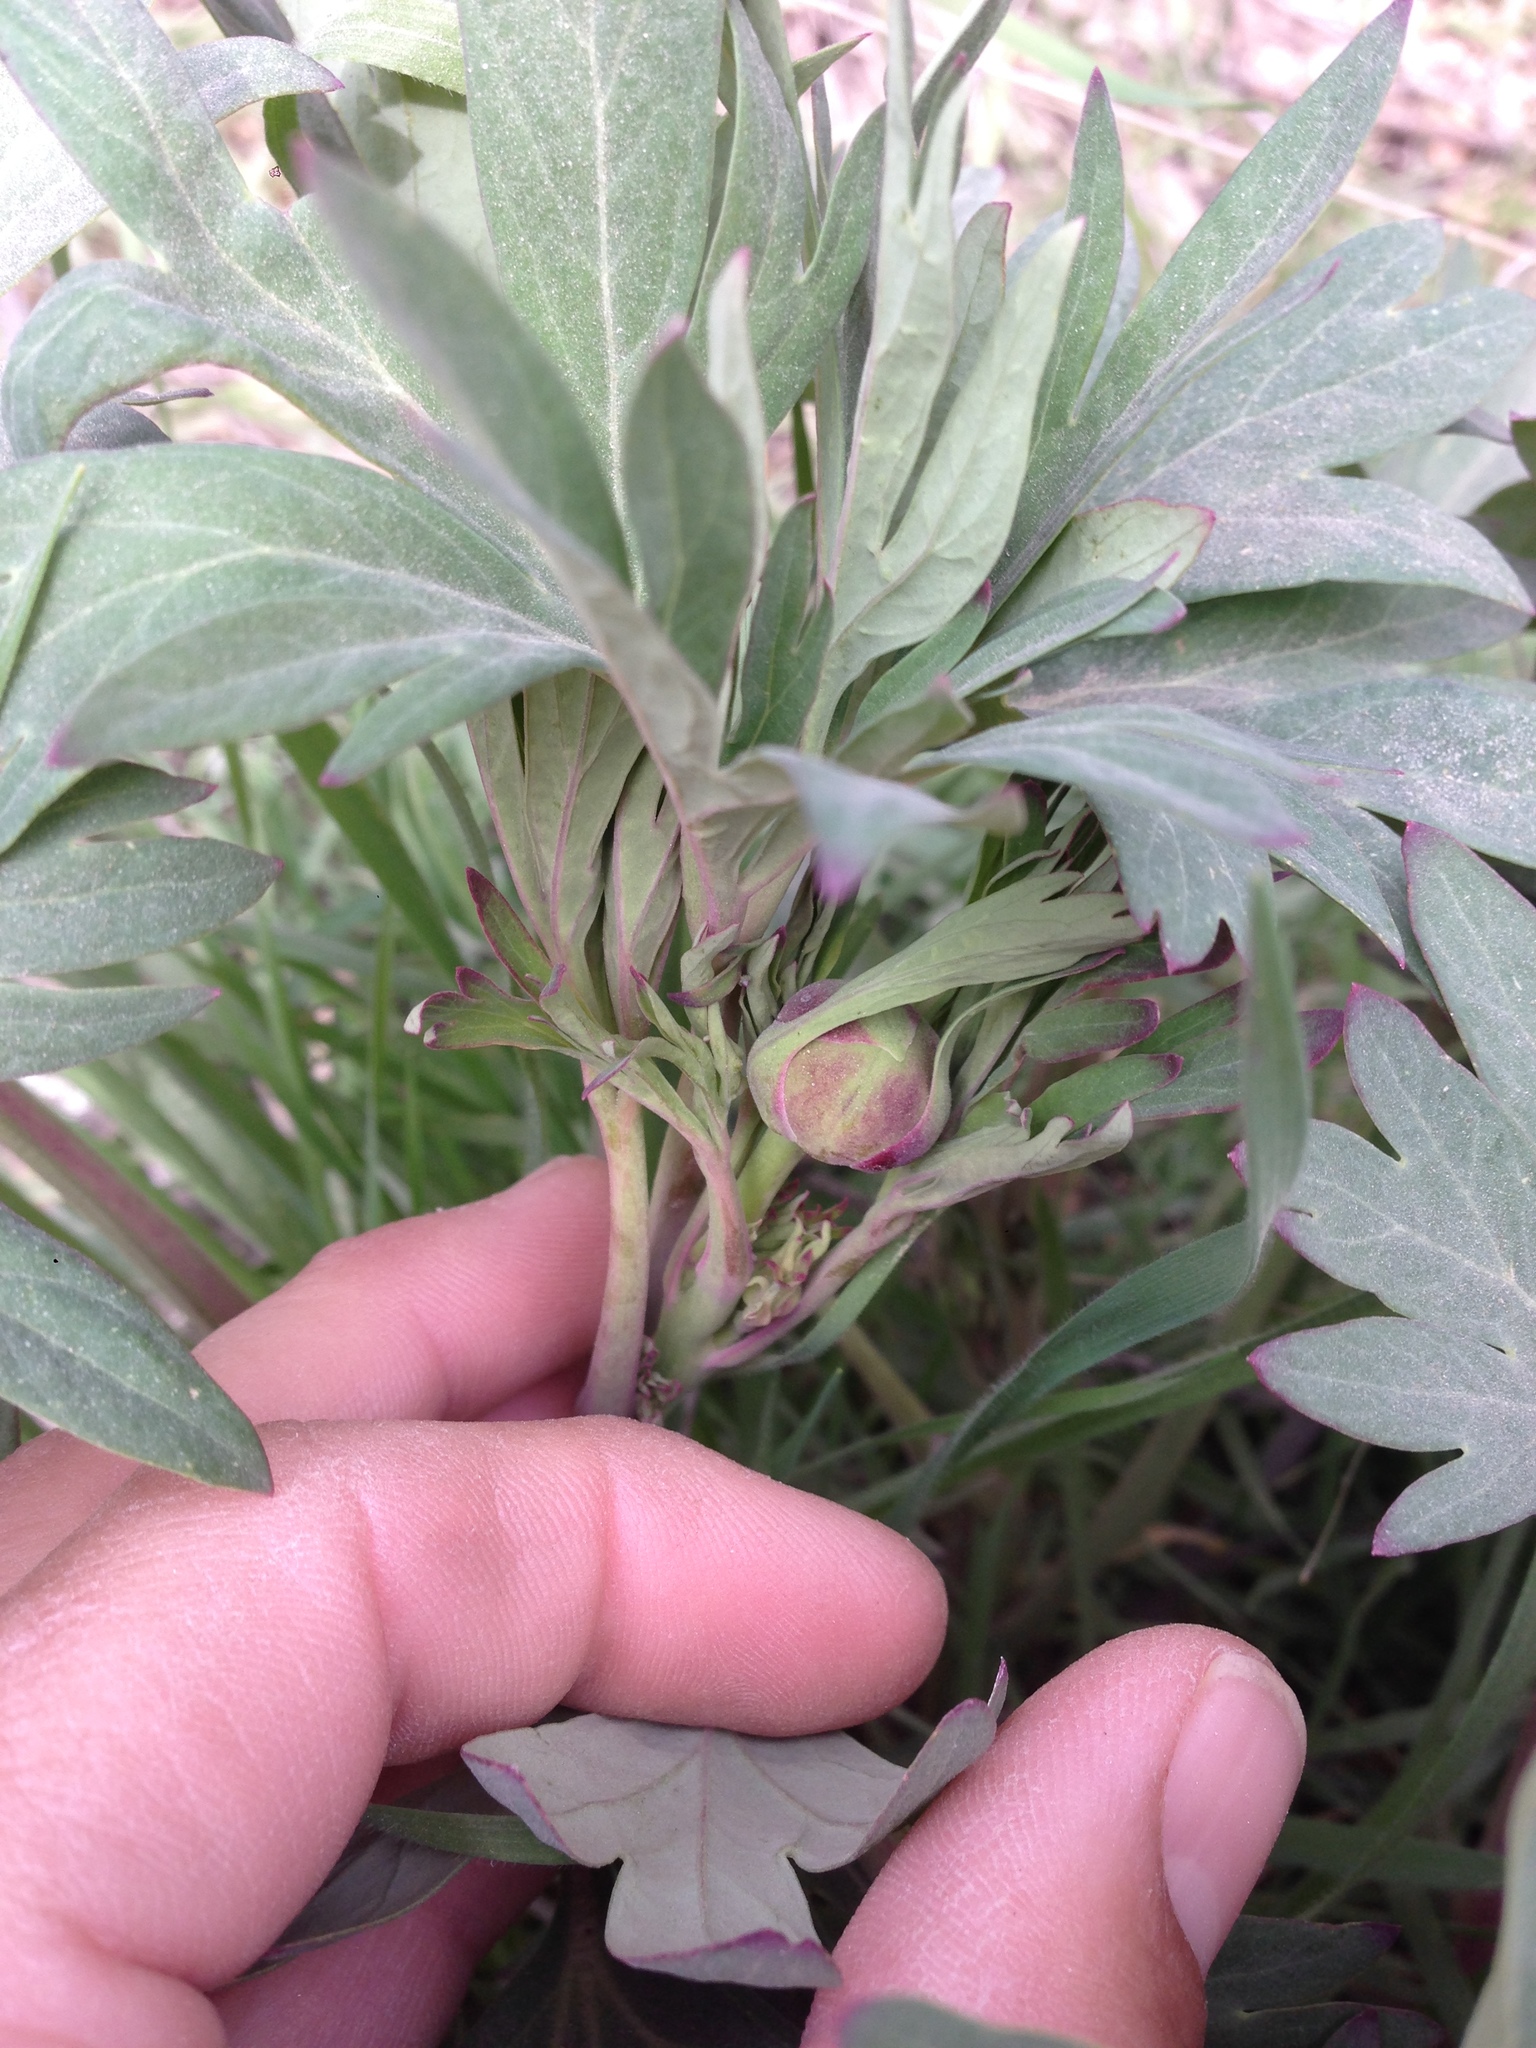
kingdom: Plantae
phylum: Tracheophyta
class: Magnoliopsida
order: Saxifragales
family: Paeoniaceae
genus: Paeonia
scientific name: Paeonia californica
